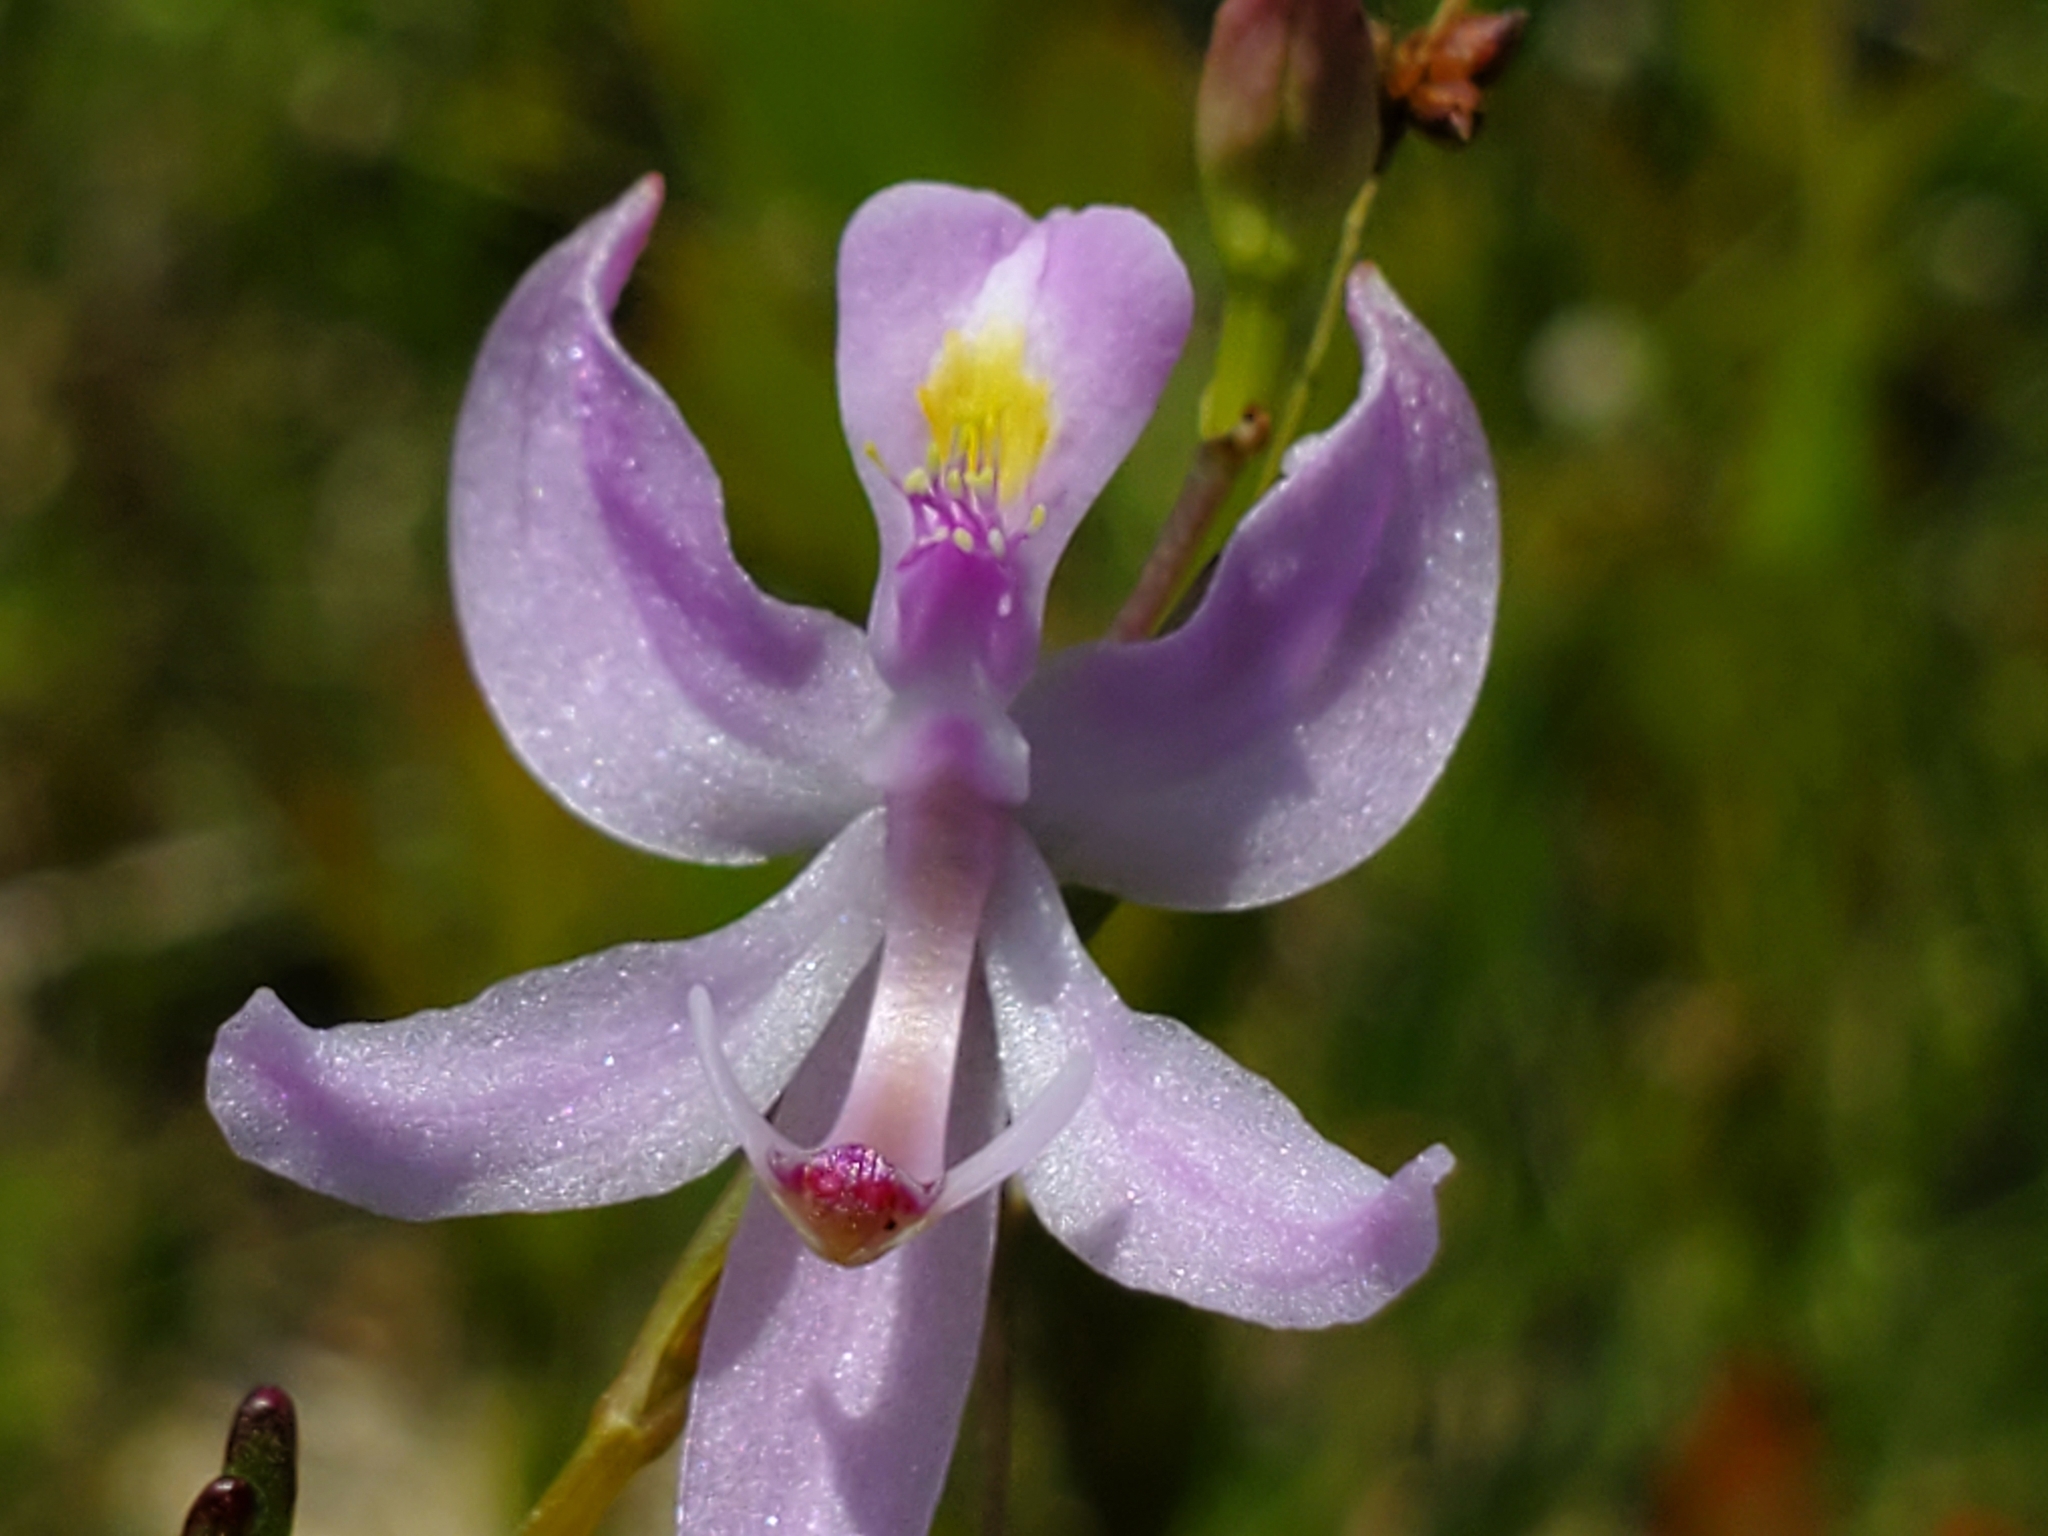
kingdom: Plantae
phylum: Tracheophyta
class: Liliopsida
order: Asparagales
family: Orchidaceae
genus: Calopogon
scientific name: Calopogon pallidus
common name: Pale grasspink
